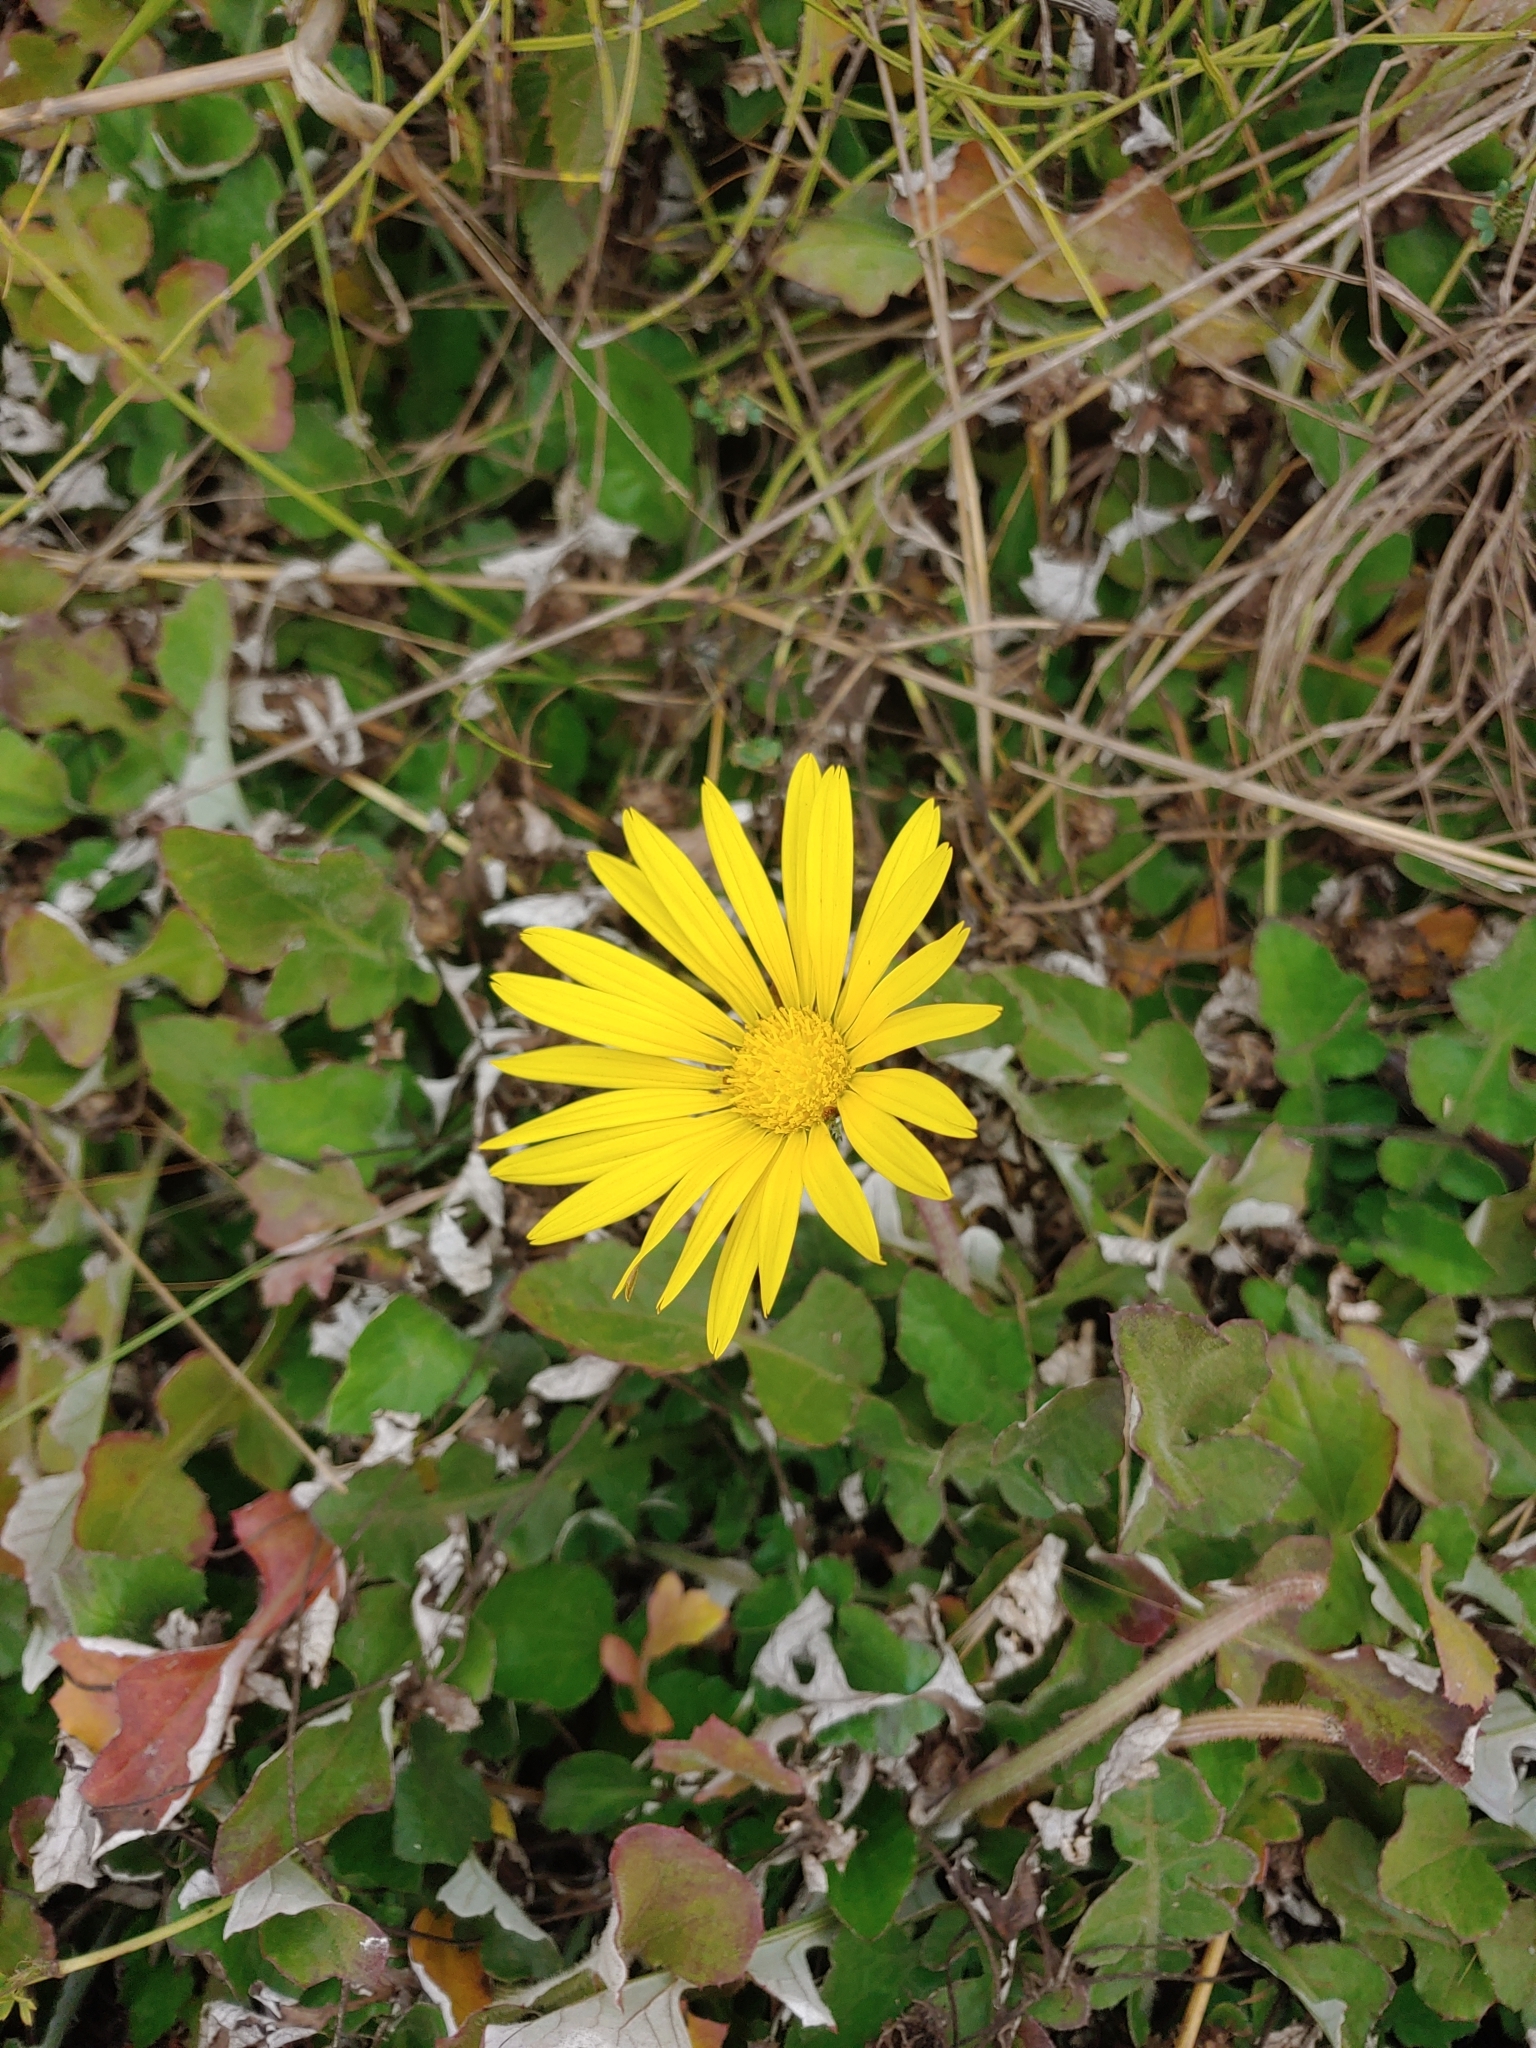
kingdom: Plantae
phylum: Tracheophyta
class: Magnoliopsida
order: Asterales
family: Asteraceae
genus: Arctotheca
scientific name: Arctotheca prostrata
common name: Capeweed
